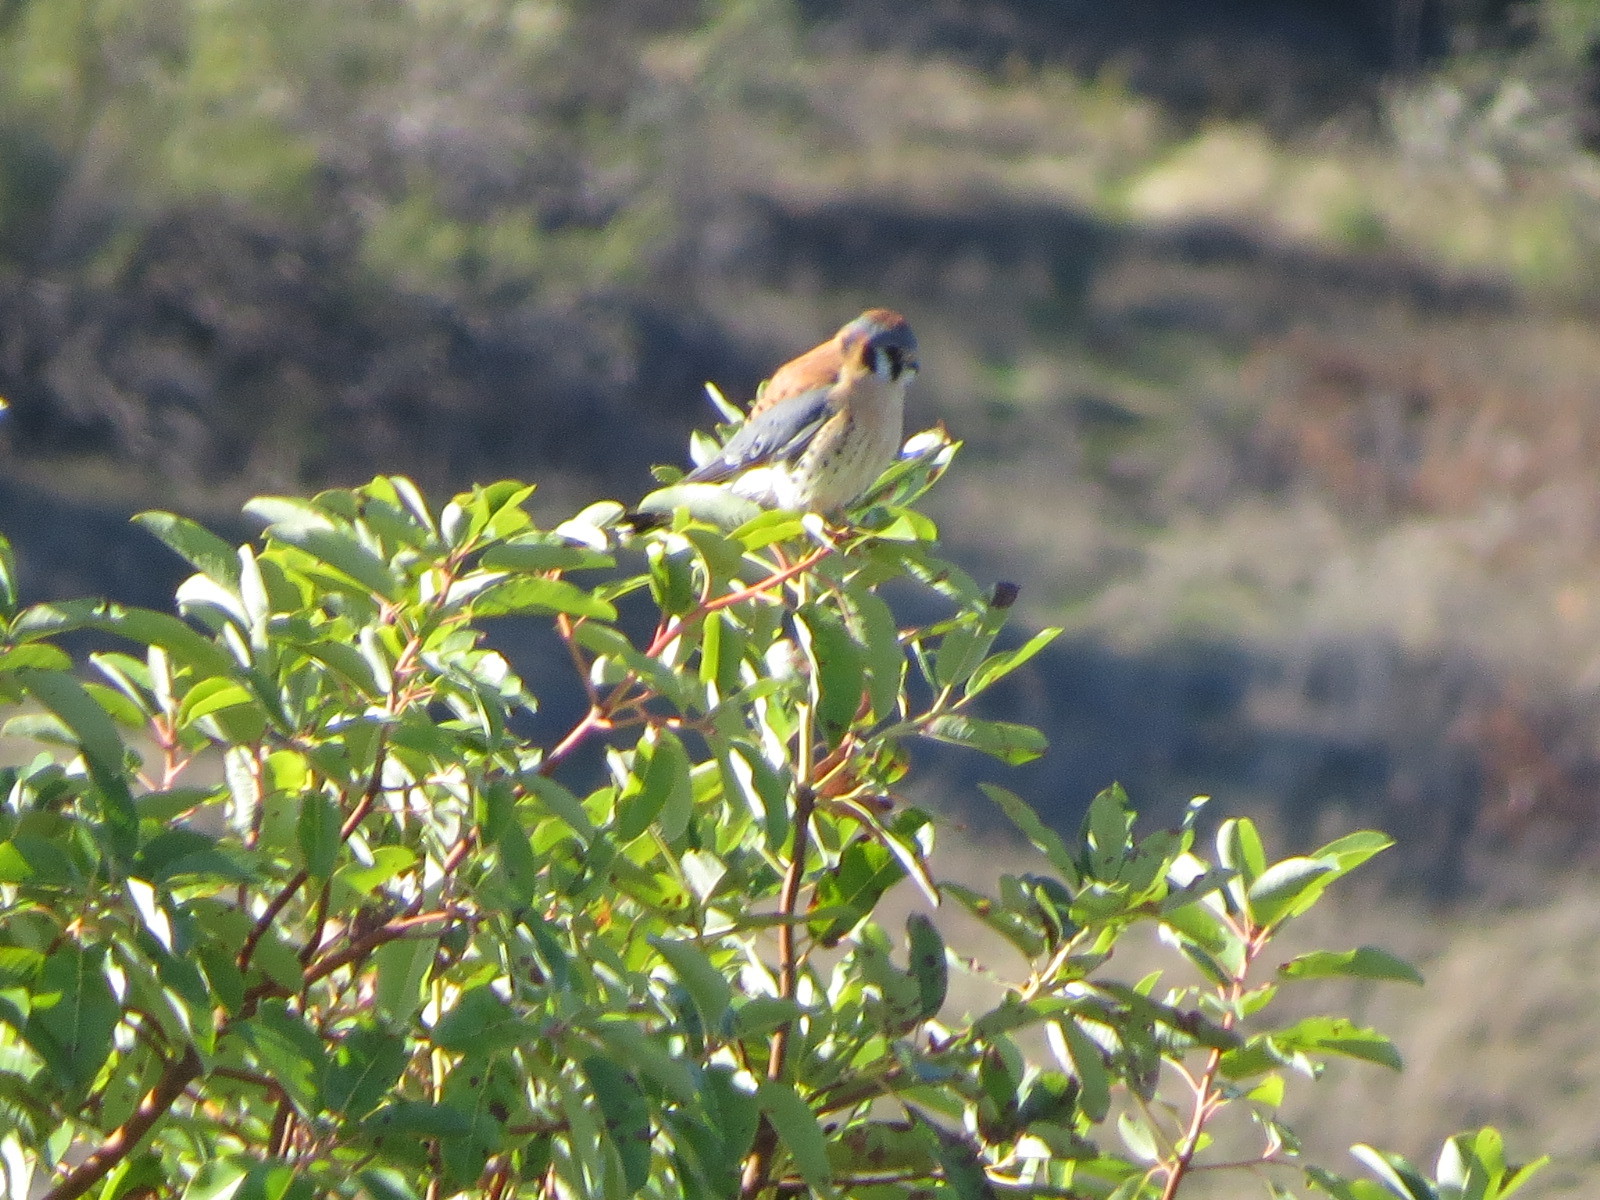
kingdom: Animalia
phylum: Chordata
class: Aves
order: Falconiformes
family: Falconidae
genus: Falco
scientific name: Falco sparverius
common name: American kestrel
